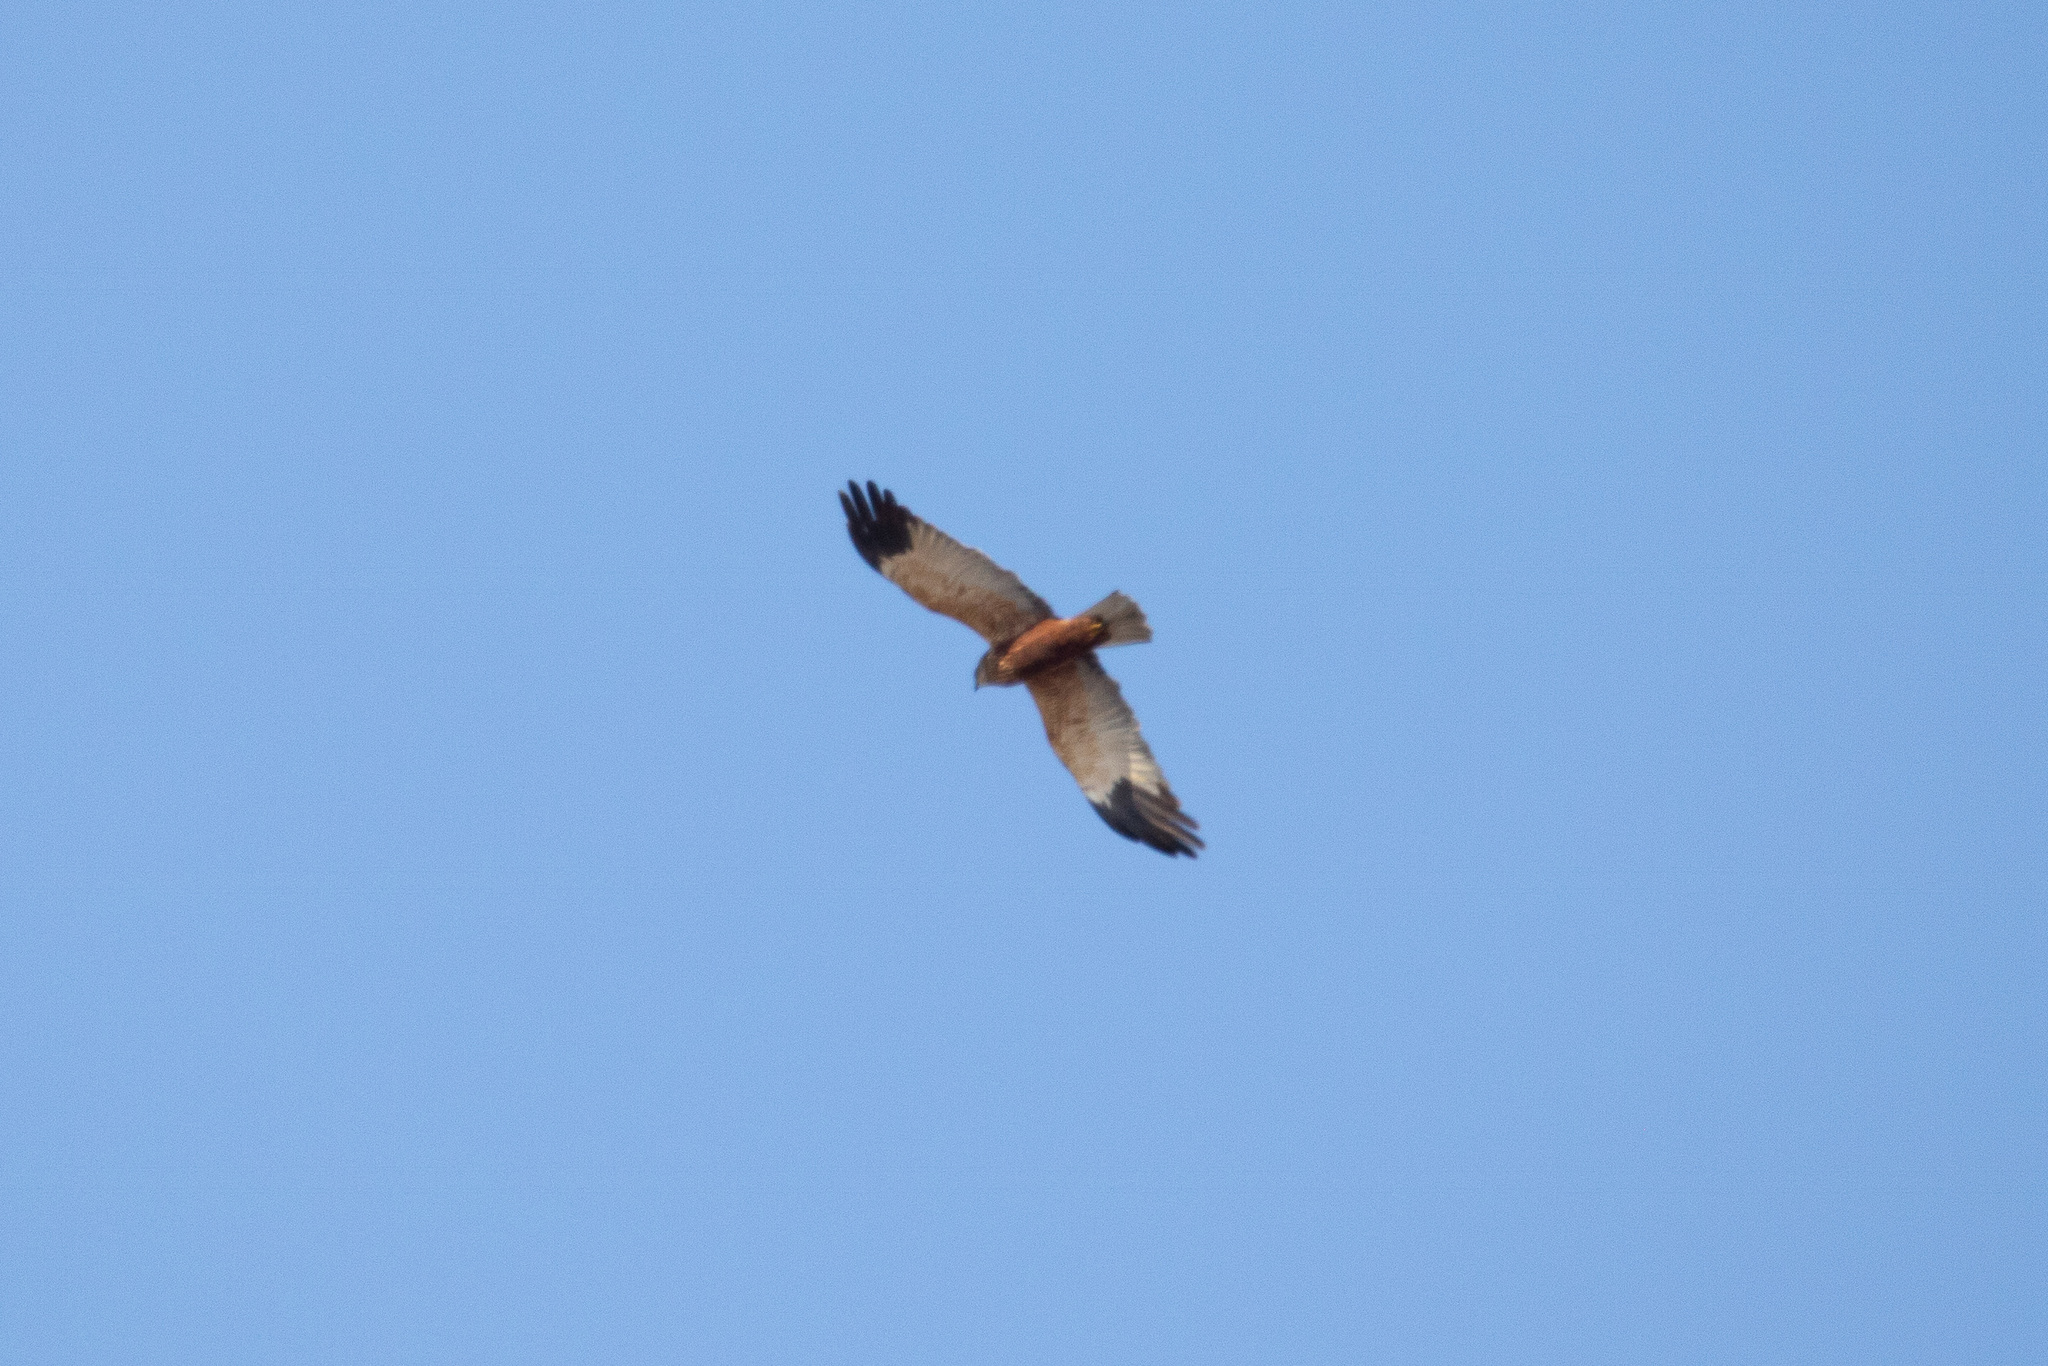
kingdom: Animalia
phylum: Chordata
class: Aves
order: Accipitriformes
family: Accipitridae
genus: Circus
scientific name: Circus aeruginosus
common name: Western marsh harrier
